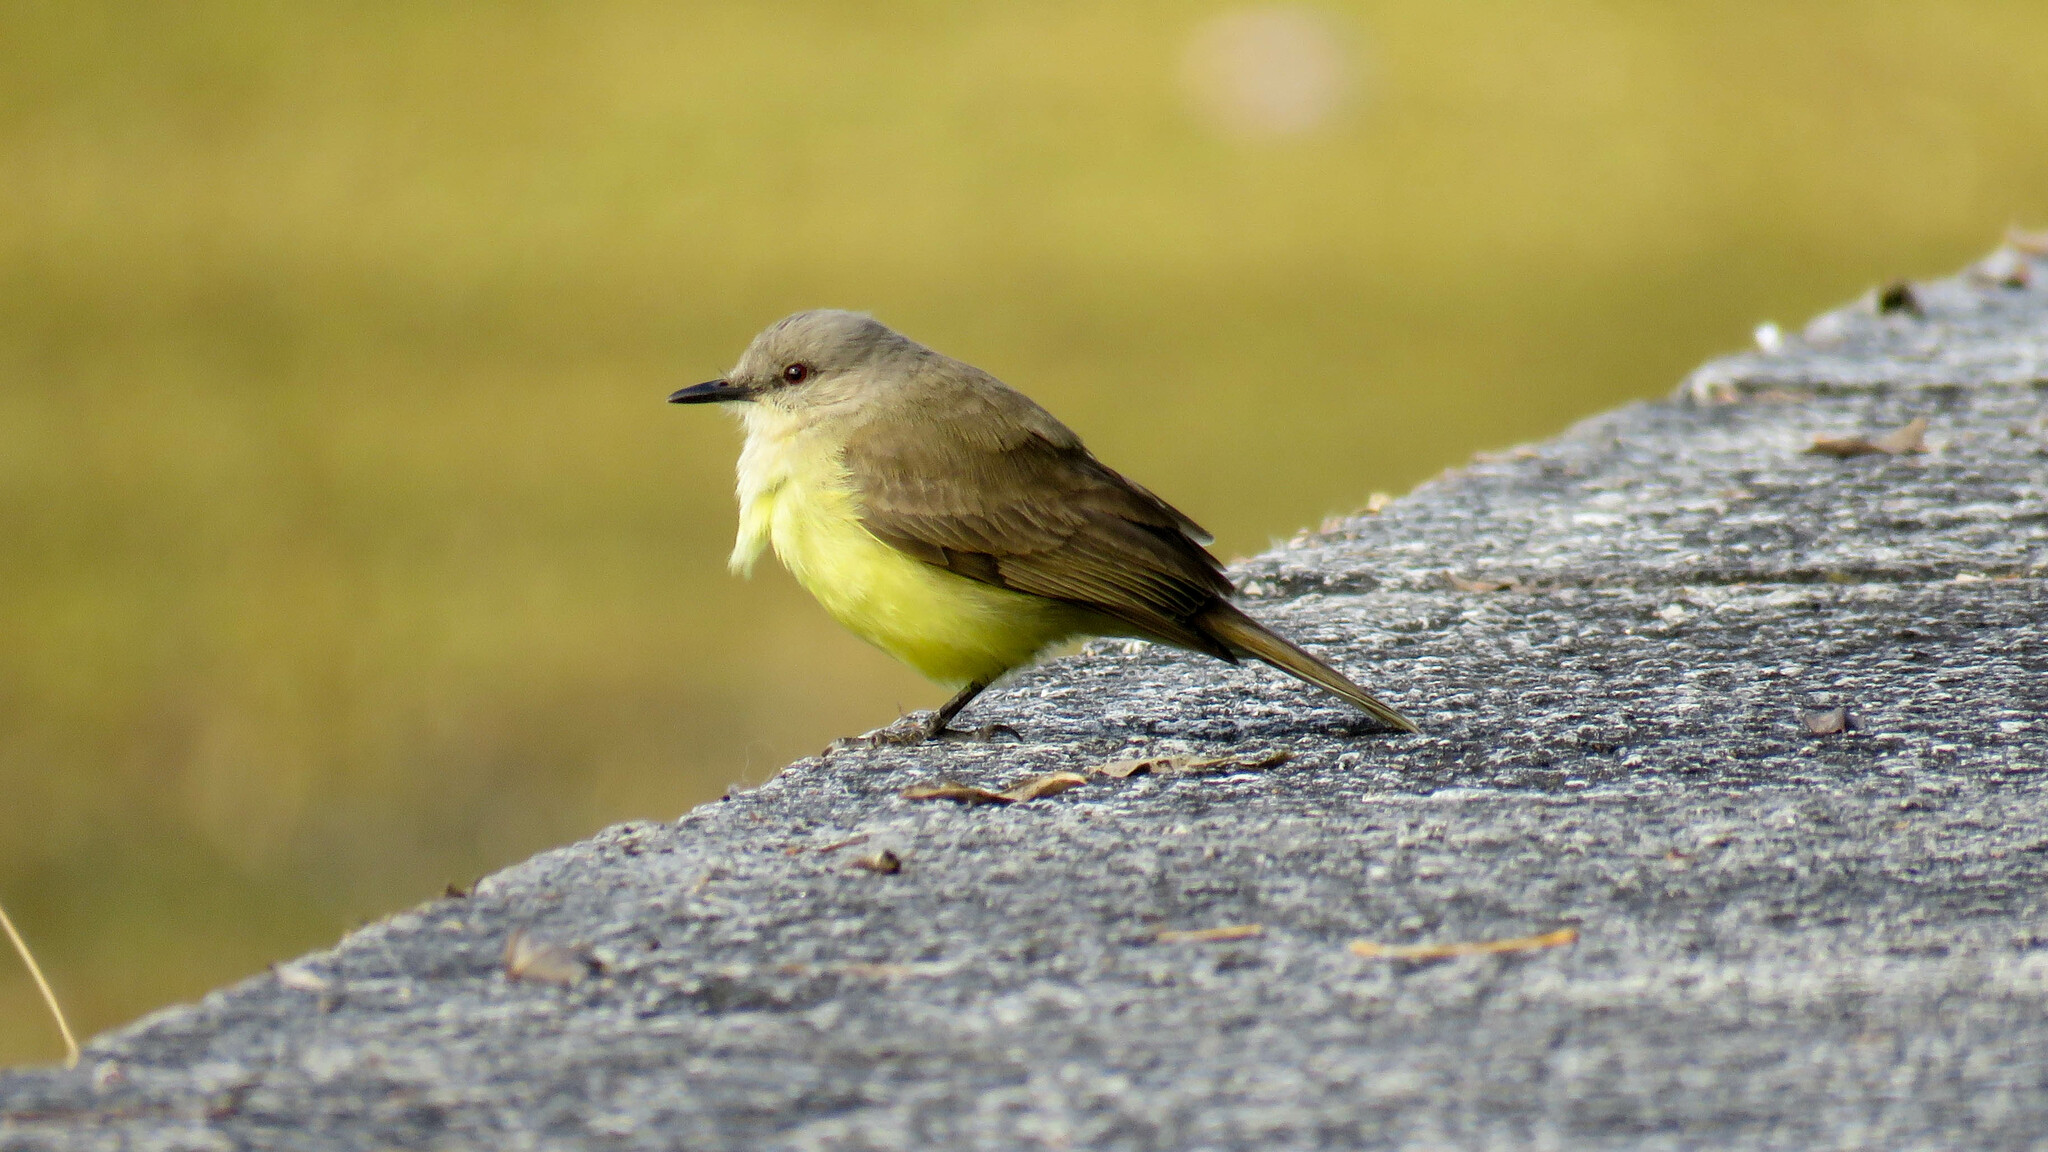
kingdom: Animalia
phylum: Chordata
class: Aves
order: Passeriformes
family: Tyrannidae
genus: Machetornis
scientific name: Machetornis rixosa
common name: Cattle tyrant
